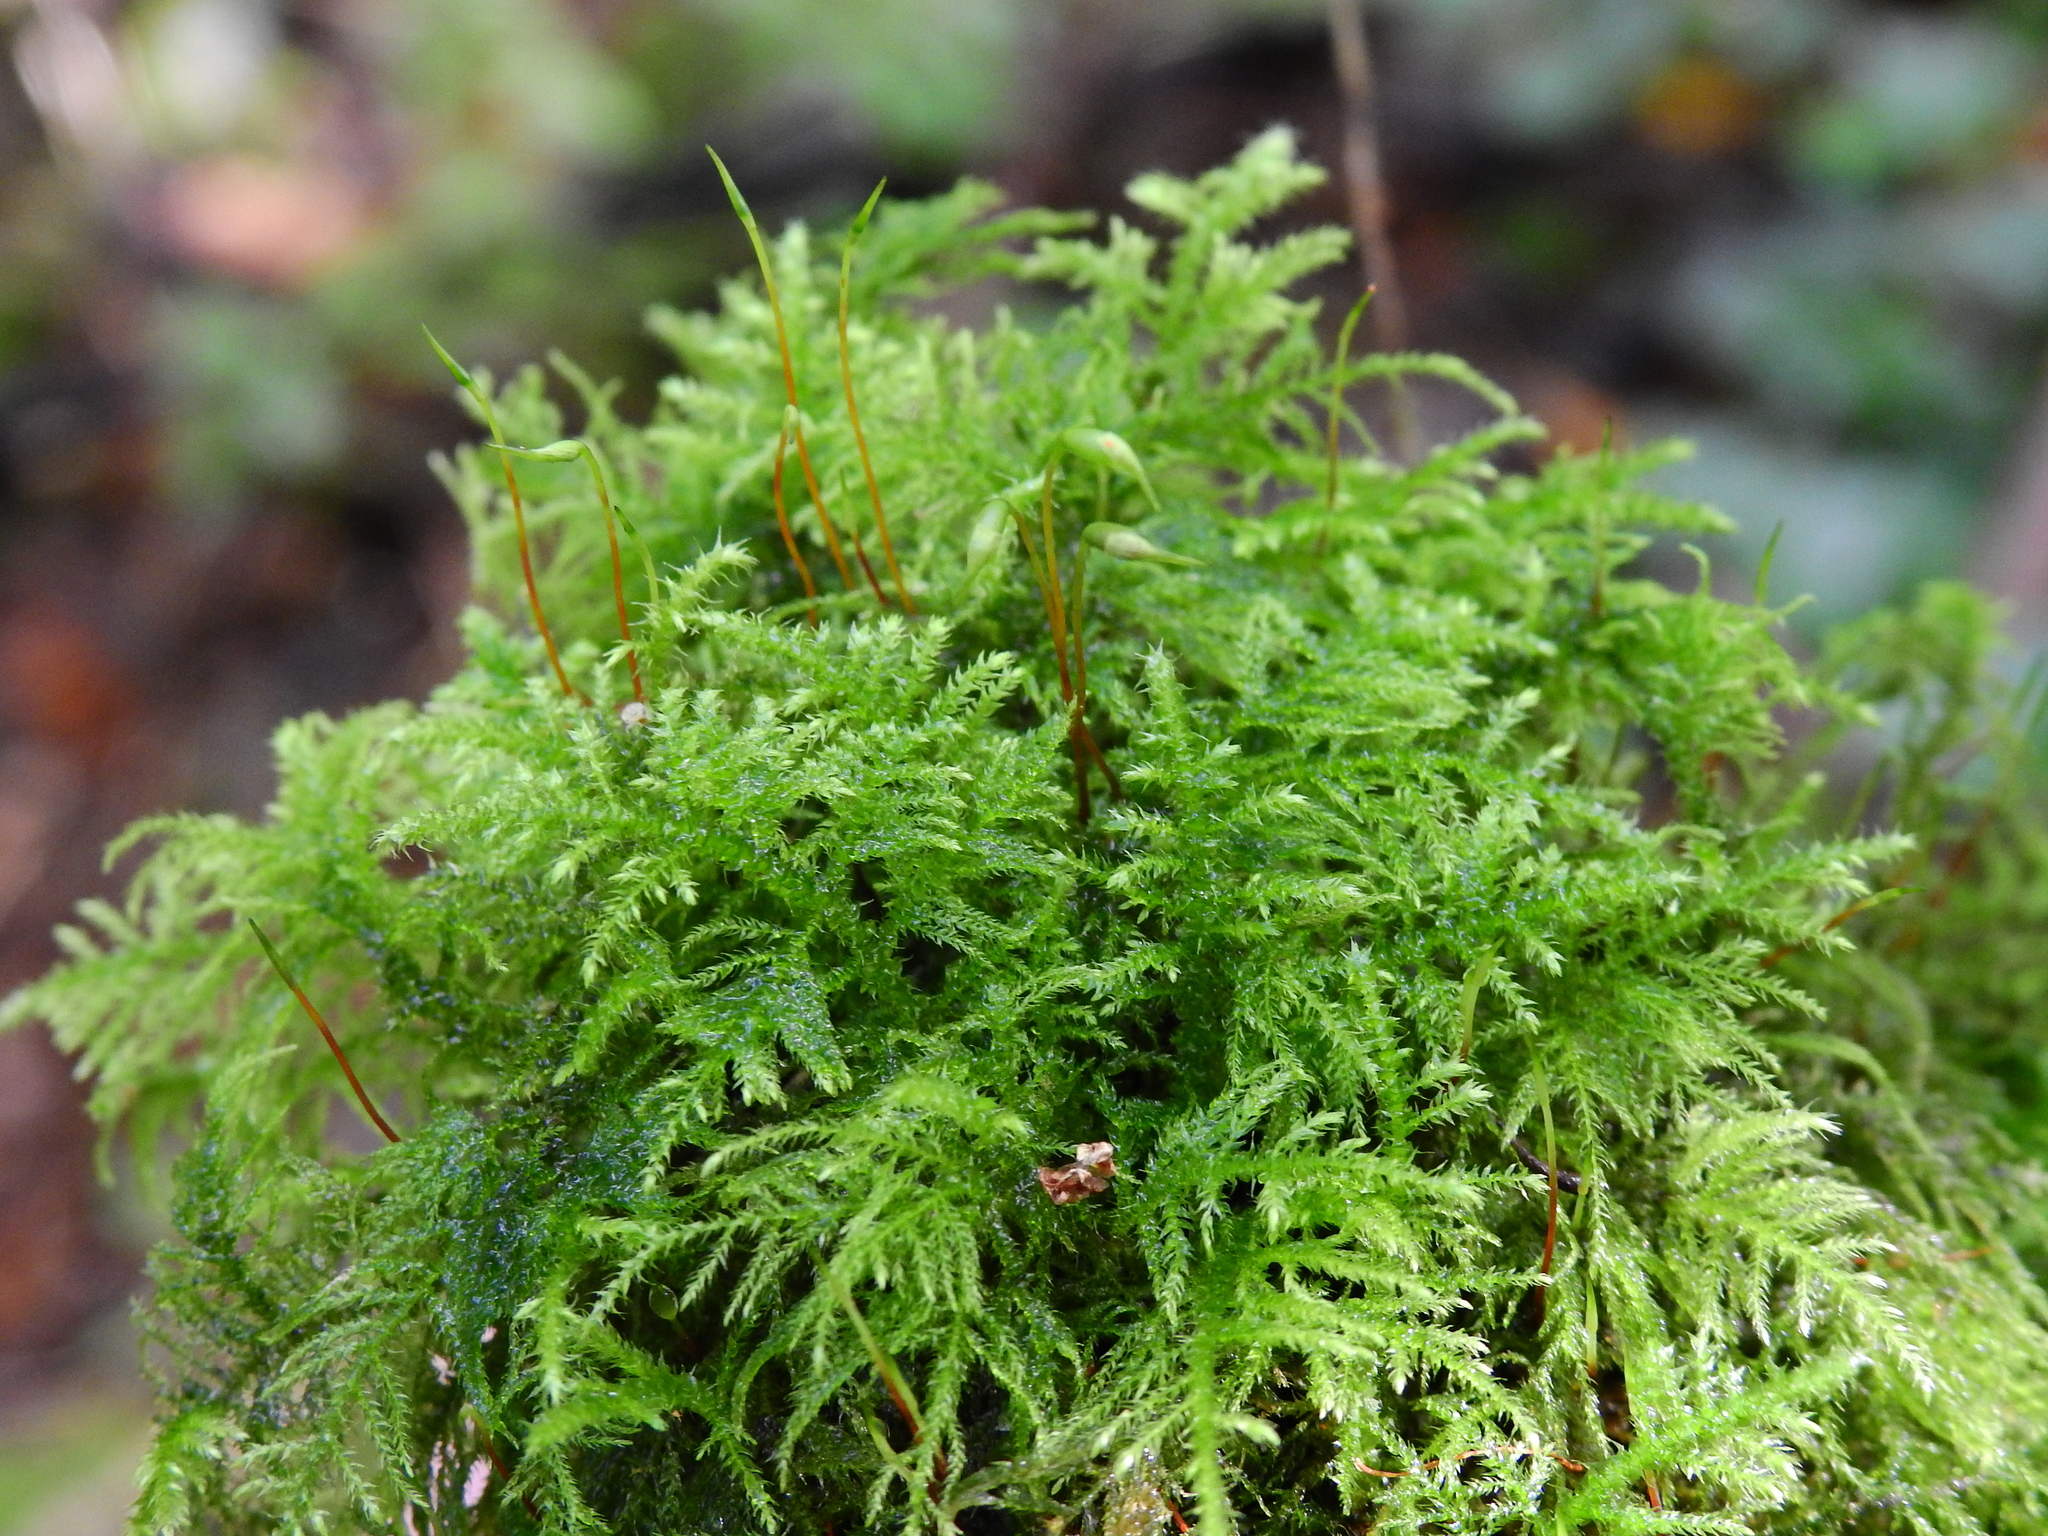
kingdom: Plantae
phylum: Bryophyta
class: Bryopsida
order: Hypnales
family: Brachytheciaceae
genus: Kindbergia
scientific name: Kindbergia praelonga
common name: Slender beaked moss
